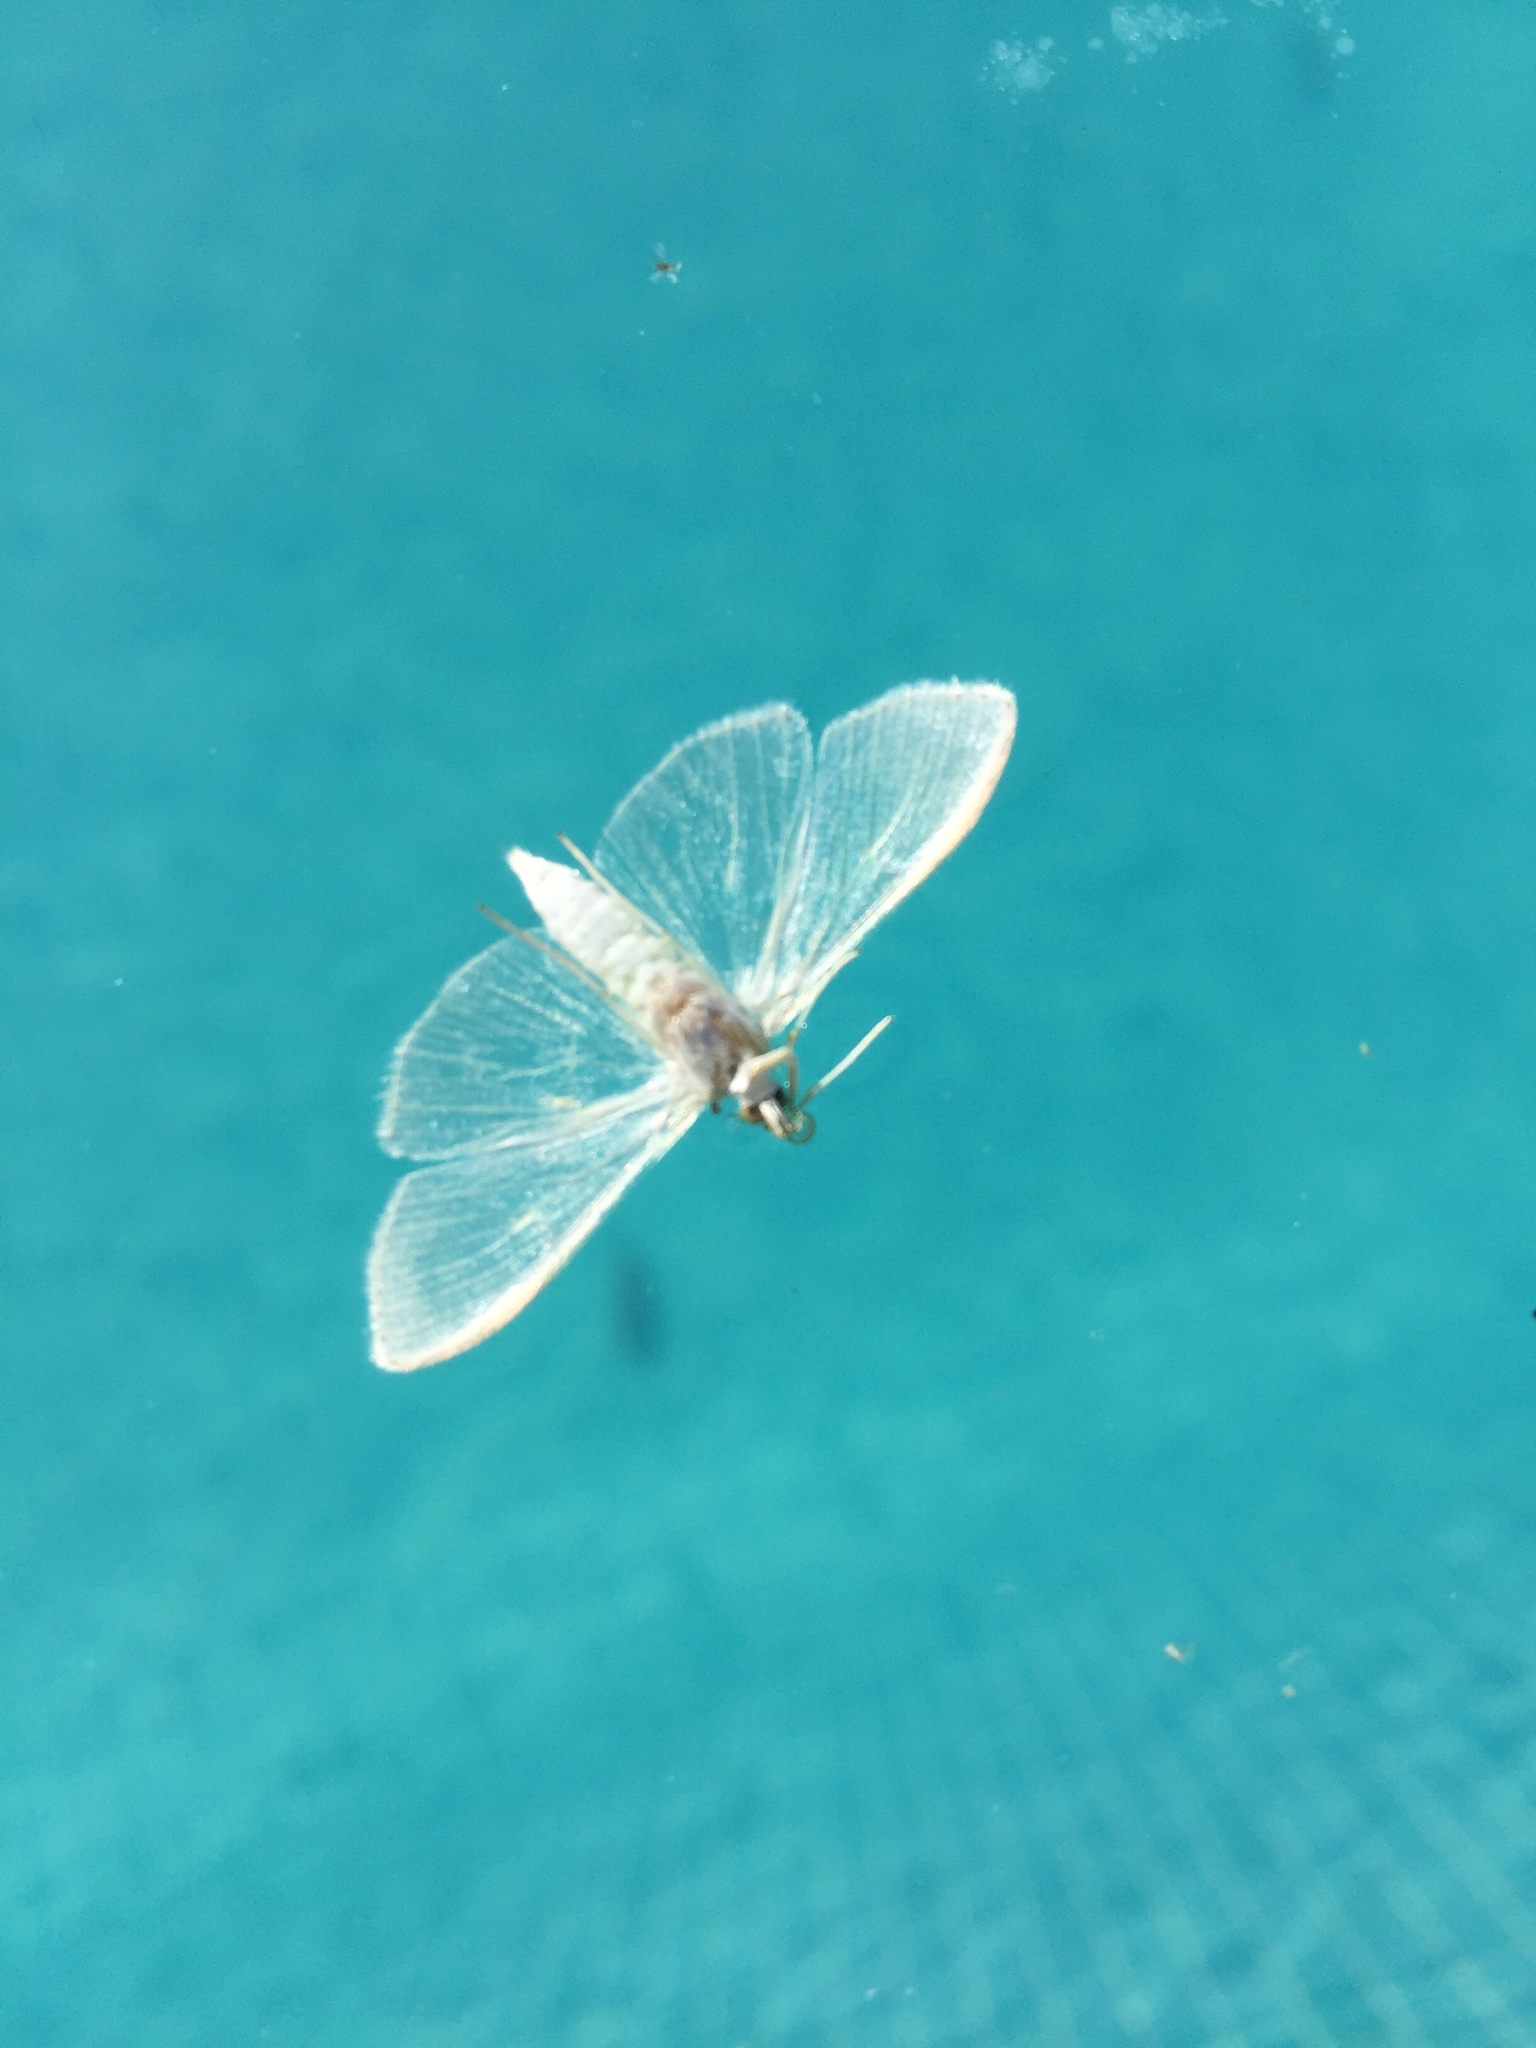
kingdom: Animalia
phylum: Arthropoda
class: Insecta
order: Lepidoptera
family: Crambidae
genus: Palpita
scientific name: Palpita vitrealis
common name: Olive-tree pearl
